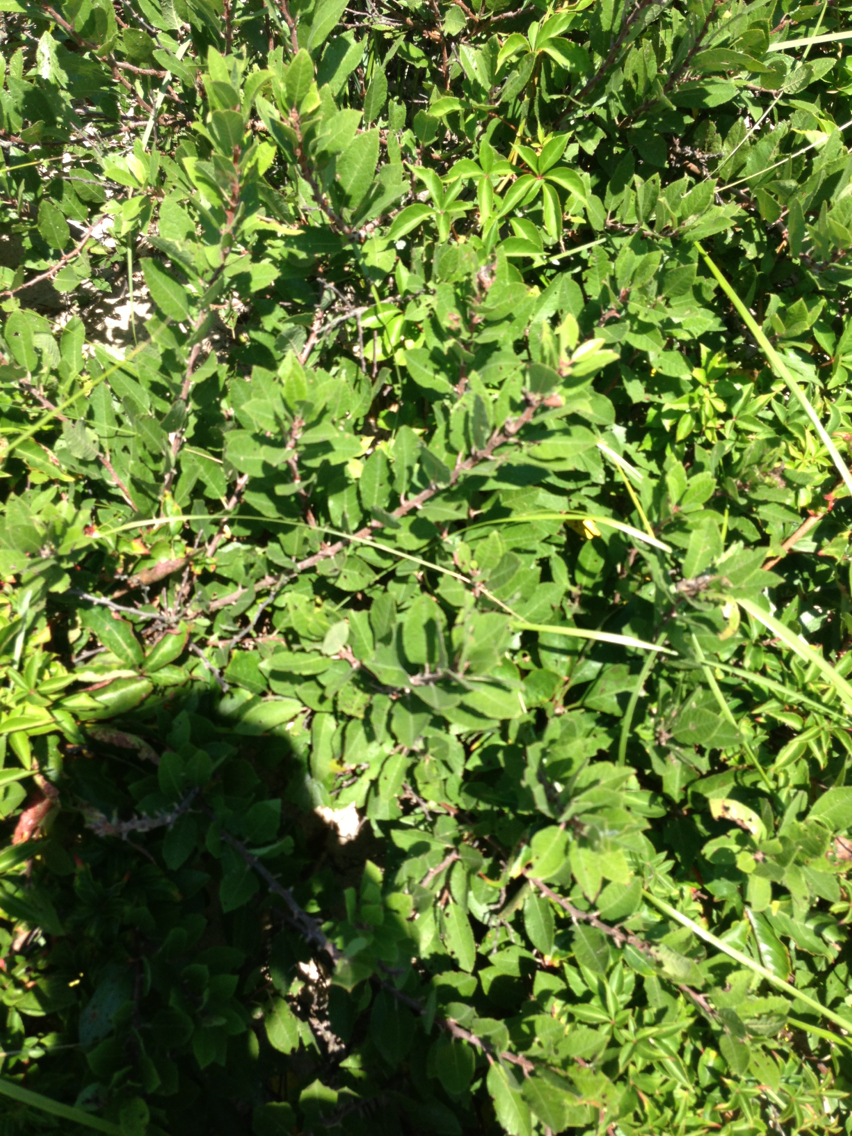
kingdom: Plantae
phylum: Tracheophyta
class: Magnoliopsida
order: Rosales
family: Rosaceae
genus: Prunus
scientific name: Prunus maritima
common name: Beach plum
